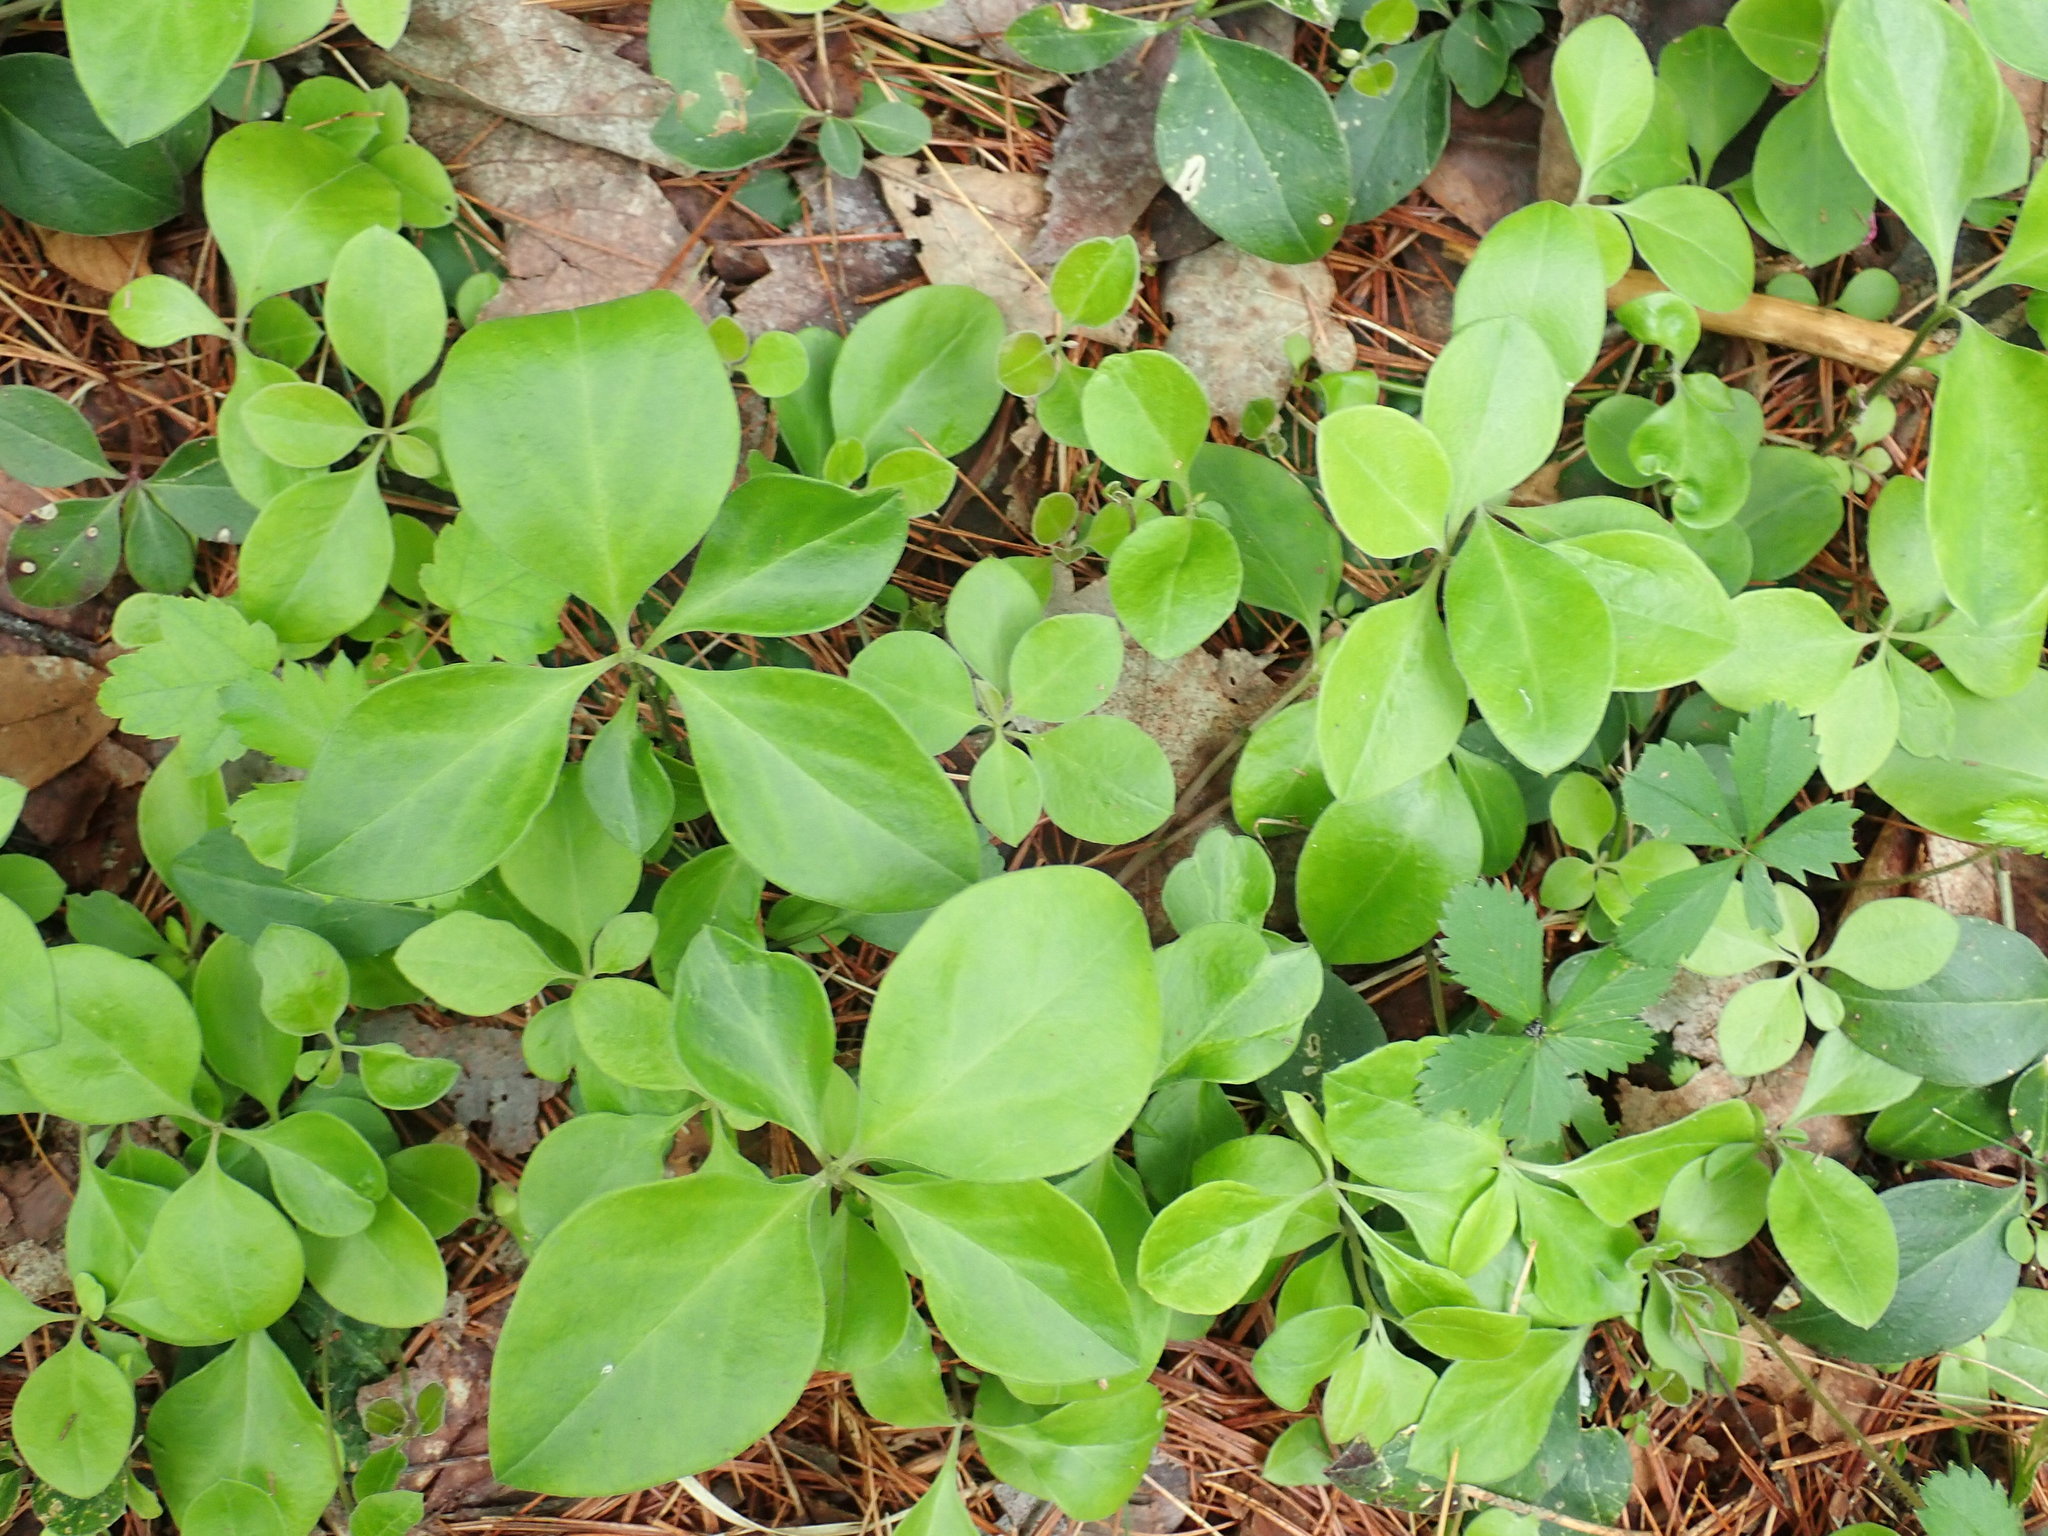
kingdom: Plantae
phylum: Tracheophyta
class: Magnoliopsida
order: Fabales
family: Polygalaceae
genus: Polygaloides
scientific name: Polygaloides paucifolia
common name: Bird-on-the-wing
